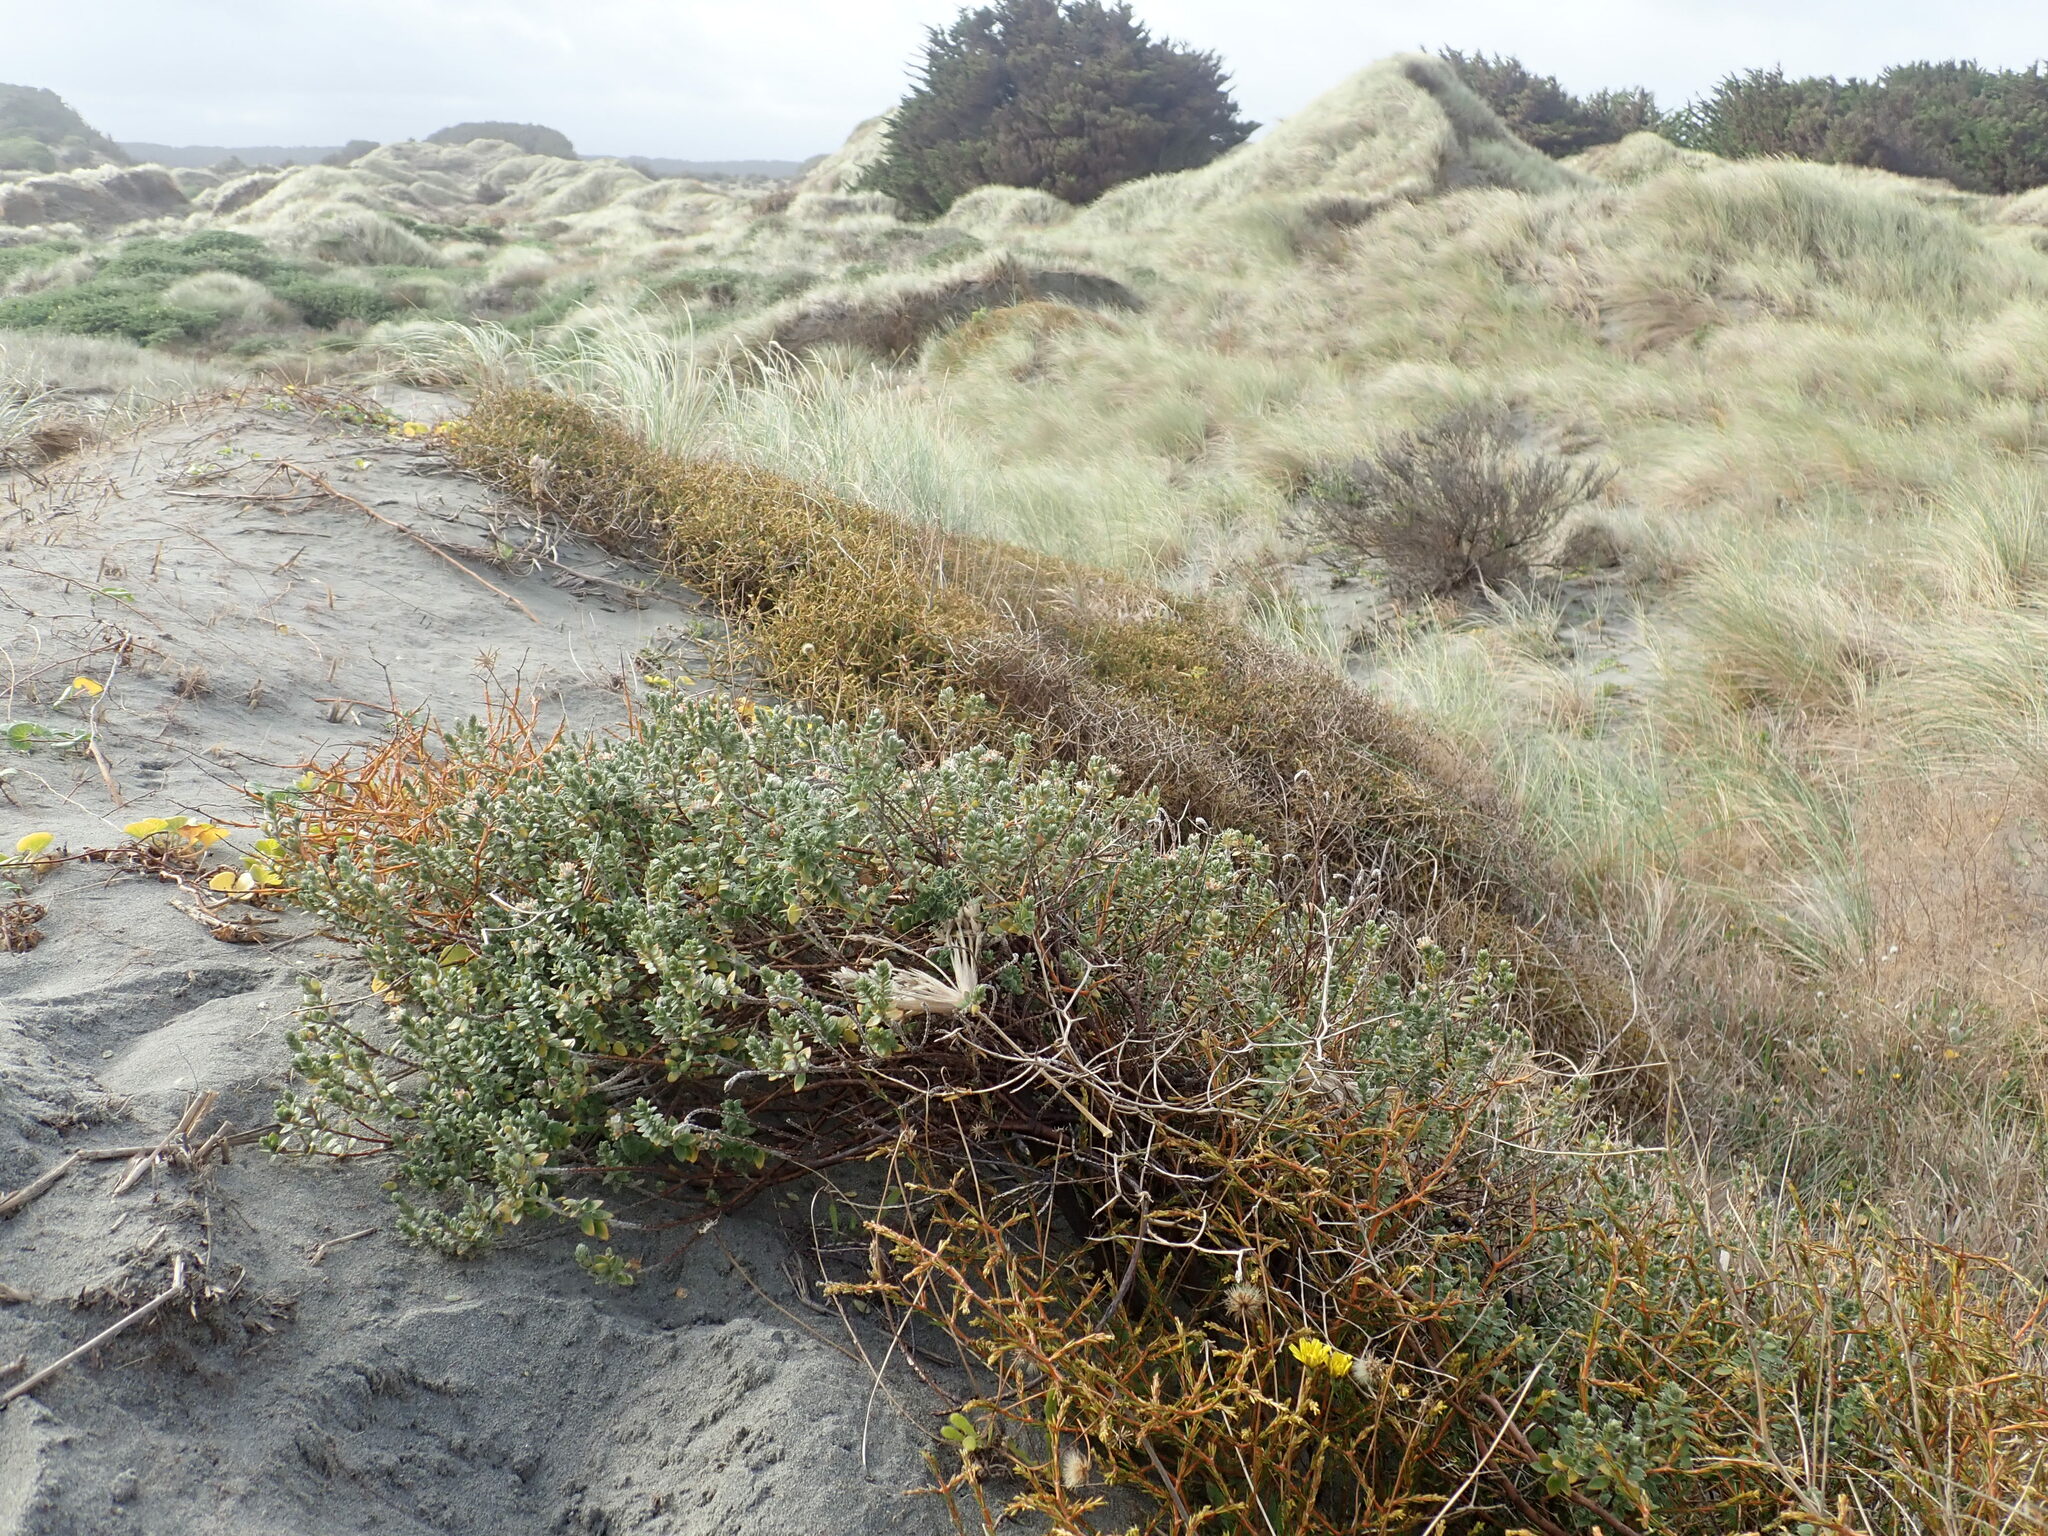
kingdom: Plantae
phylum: Tracheophyta
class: Magnoliopsida
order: Gentianales
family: Rubiaceae
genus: Coprosma
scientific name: Coprosma acerosa
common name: Sand coprosma
